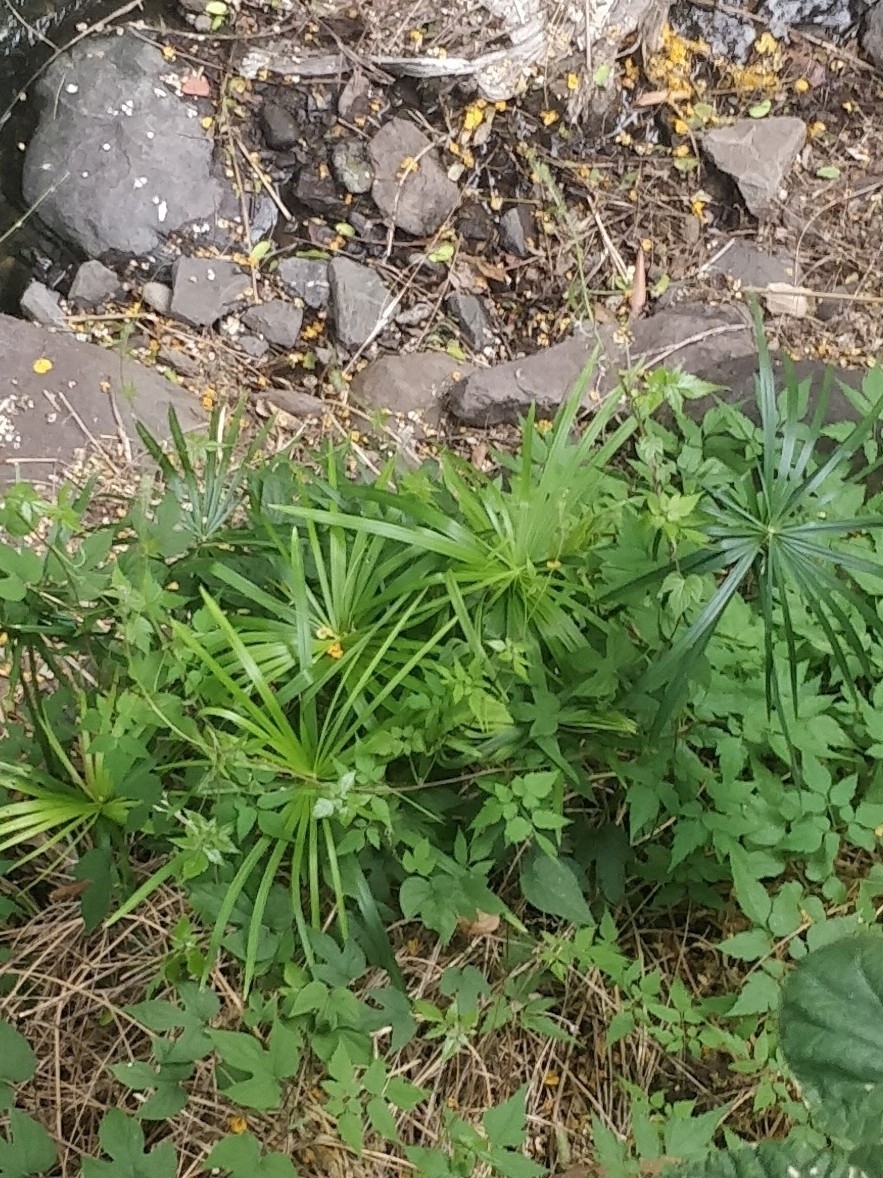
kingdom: Plantae
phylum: Tracheophyta
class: Liliopsida
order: Poales
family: Cyperaceae
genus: Cyperus
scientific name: Cyperus alternifolius
